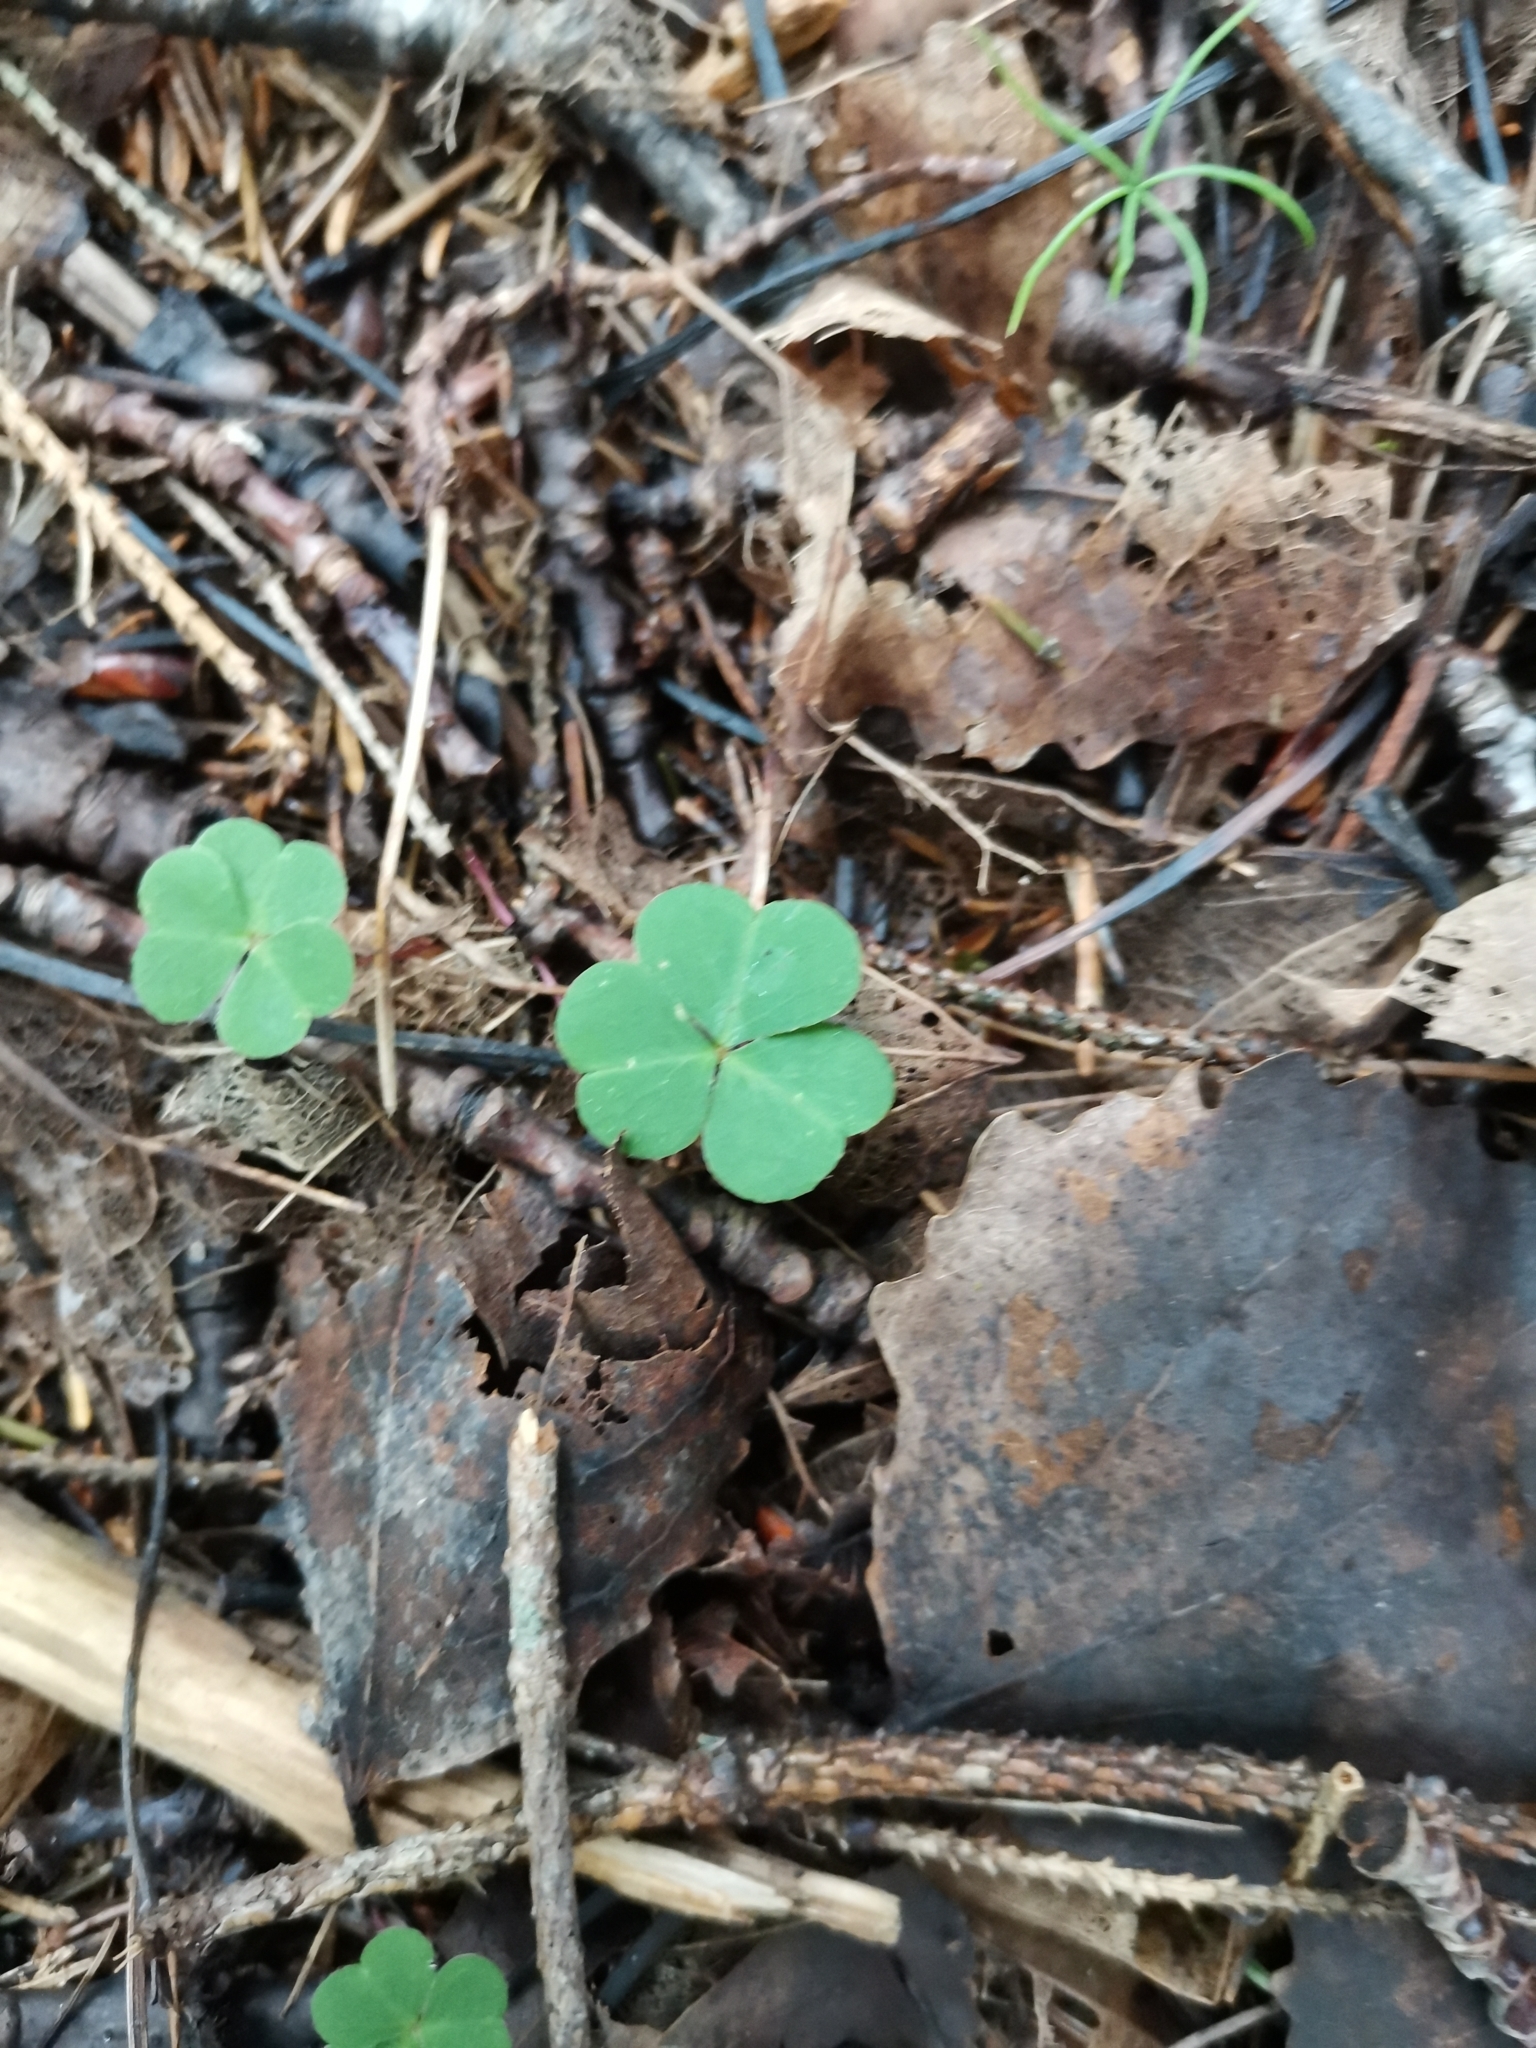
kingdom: Plantae
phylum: Tracheophyta
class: Magnoliopsida
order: Oxalidales
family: Oxalidaceae
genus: Oxalis
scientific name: Oxalis acetosella
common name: Wood-sorrel
